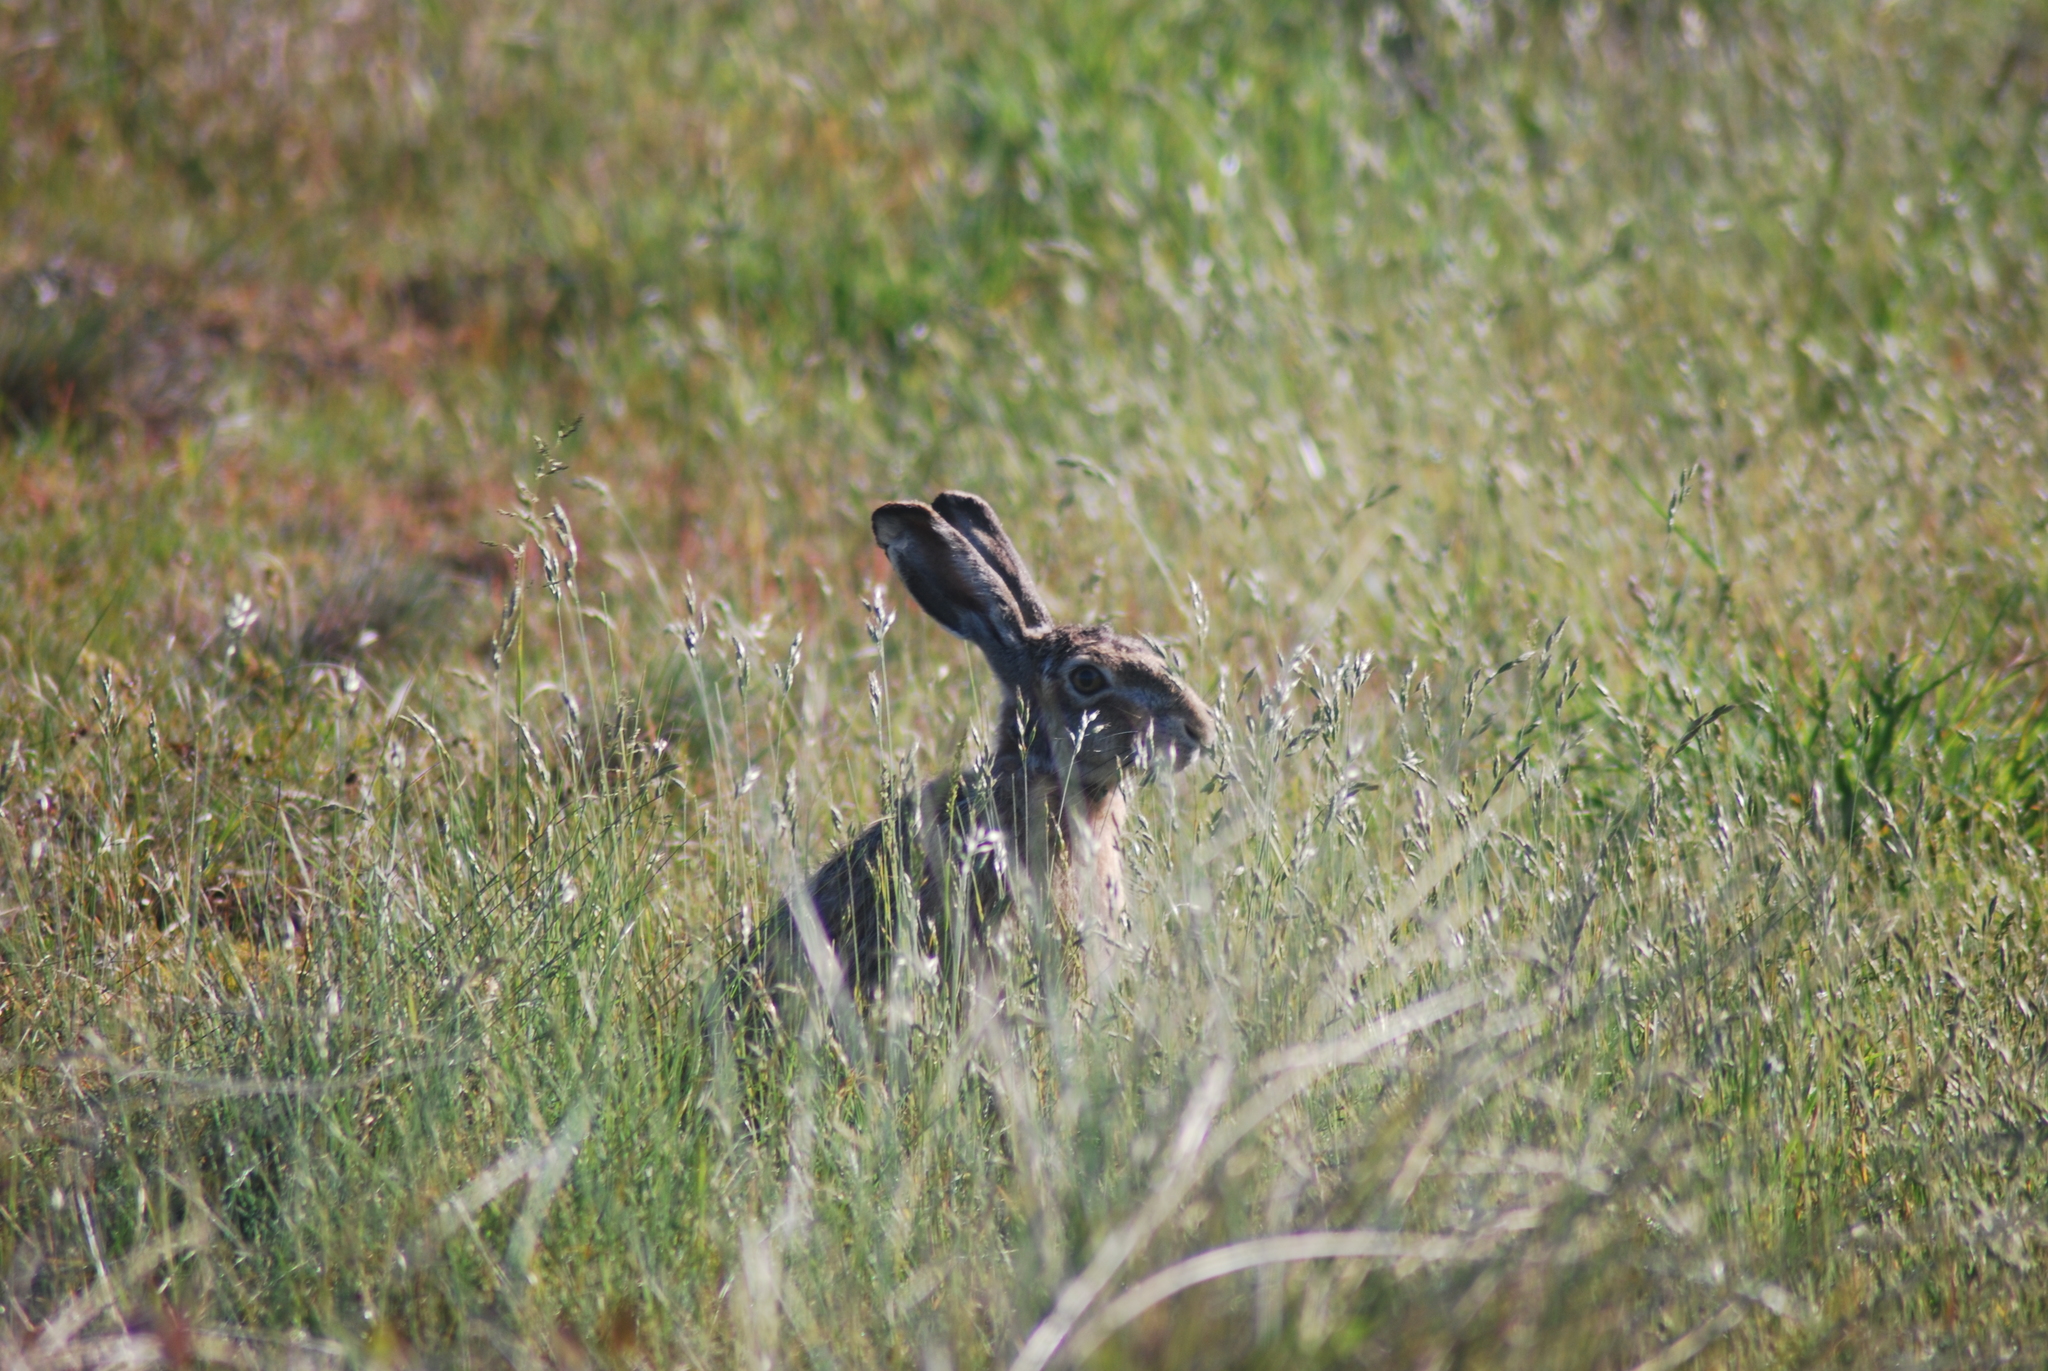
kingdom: Animalia
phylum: Chordata
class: Mammalia
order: Lagomorpha
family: Leporidae
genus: Lepus
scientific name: Lepus europaeus
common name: European hare
